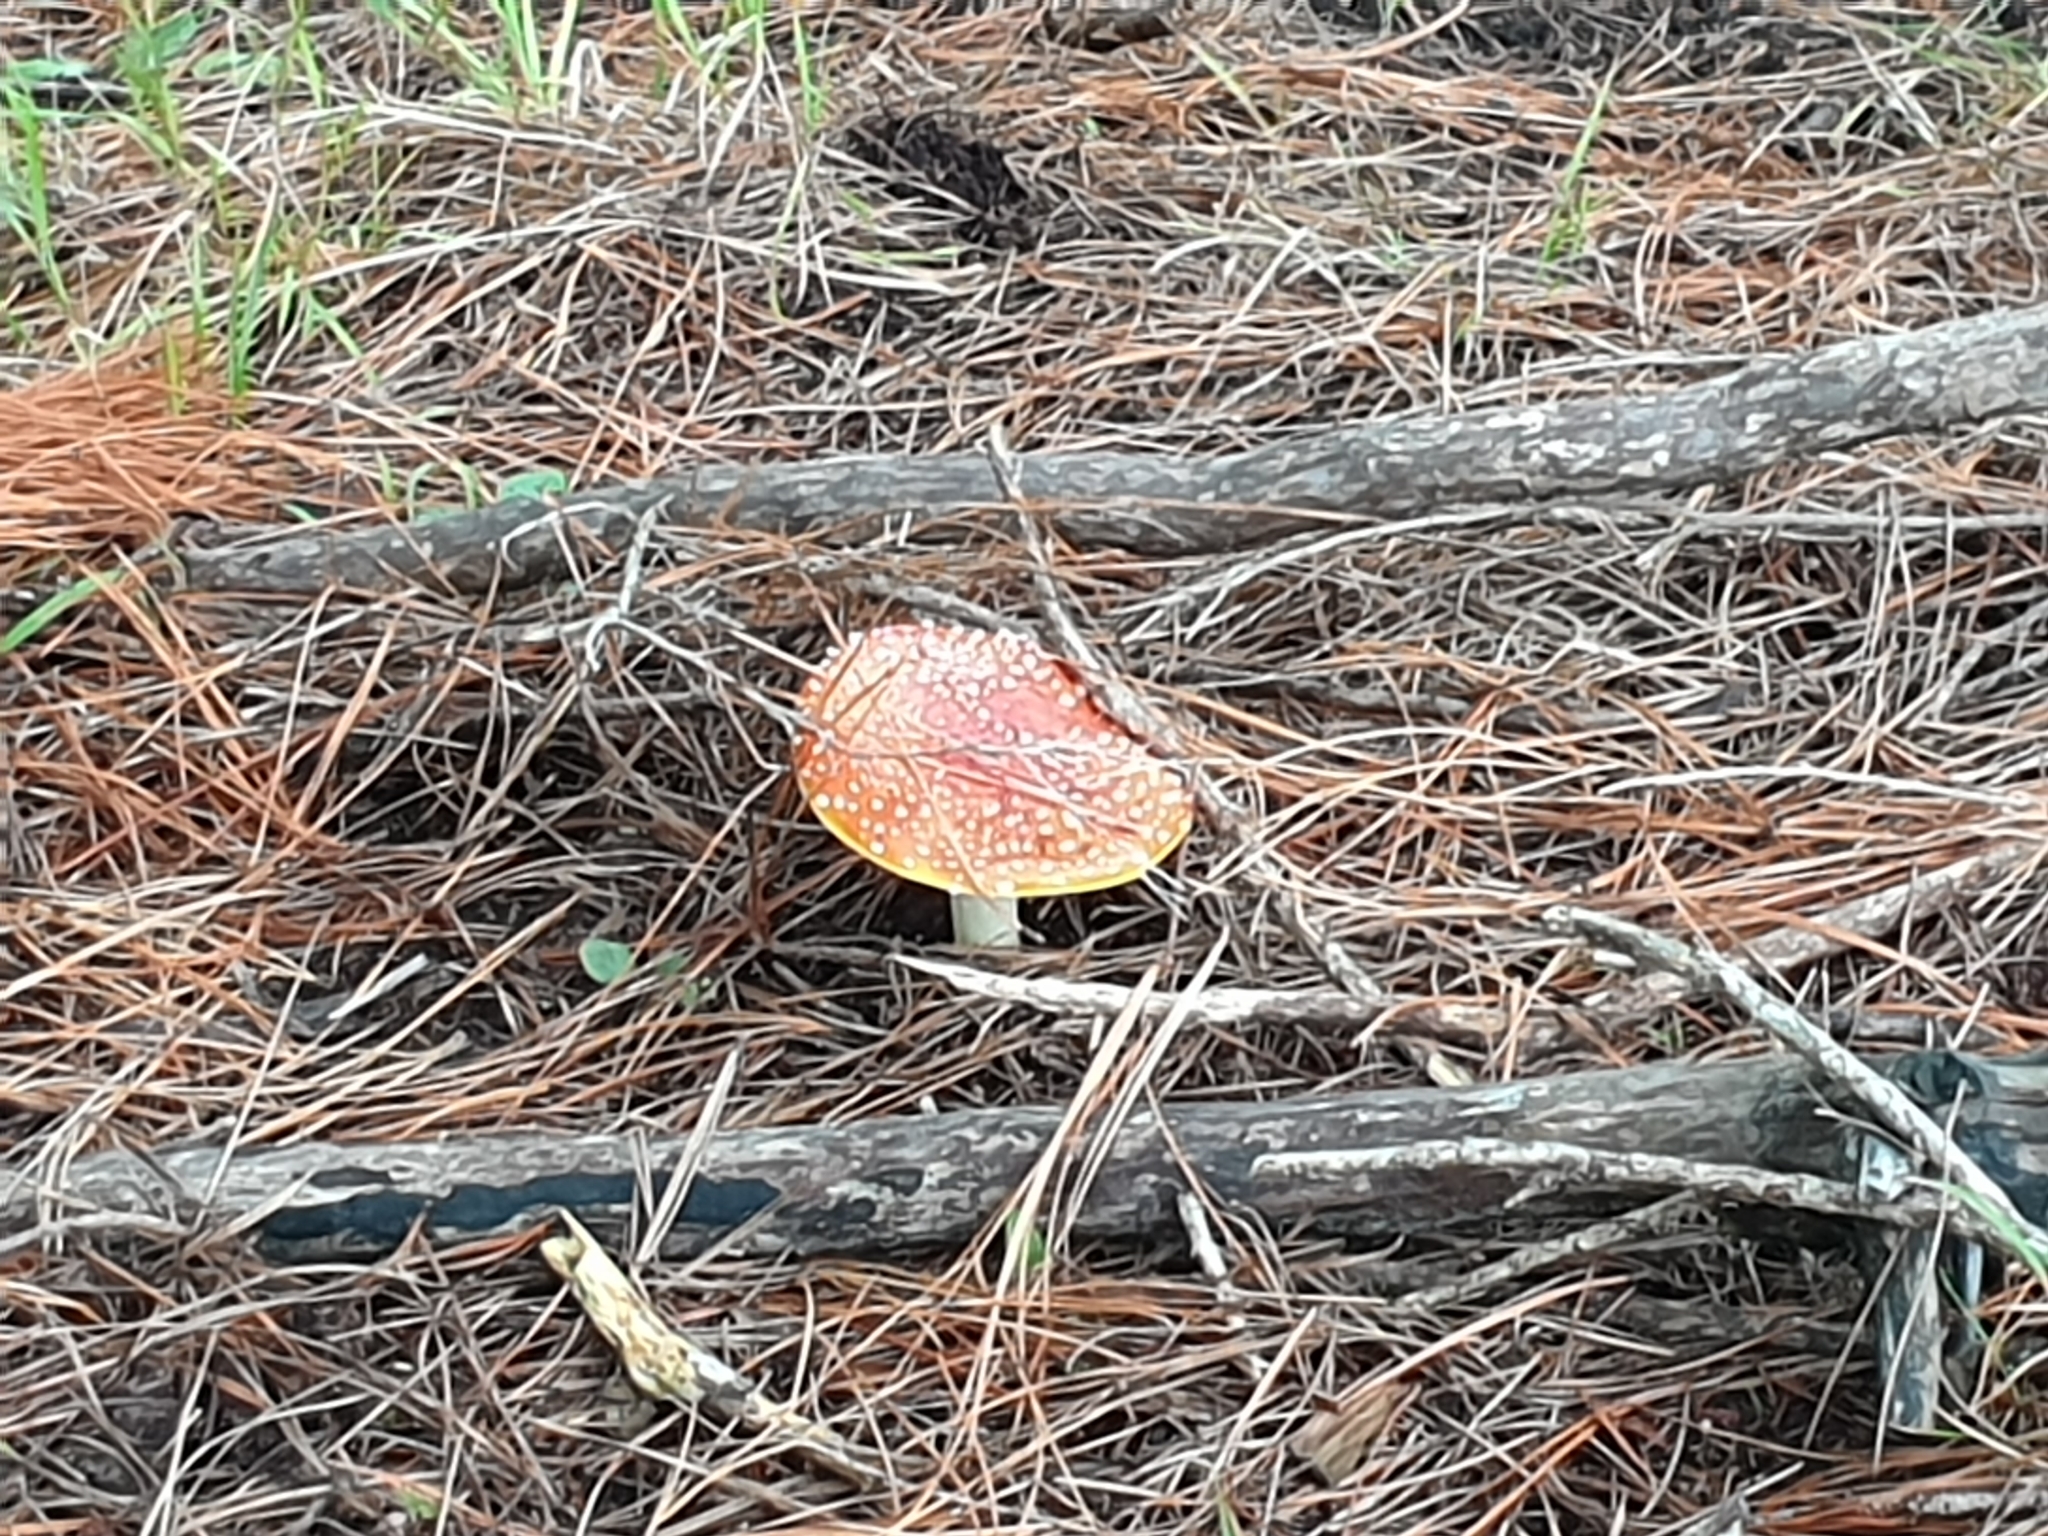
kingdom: Fungi
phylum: Basidiomycota
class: Agaricomycetes
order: Agaricales
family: Amanitaceae
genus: Amanita
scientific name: Amanita muscaria
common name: Fly agaric
